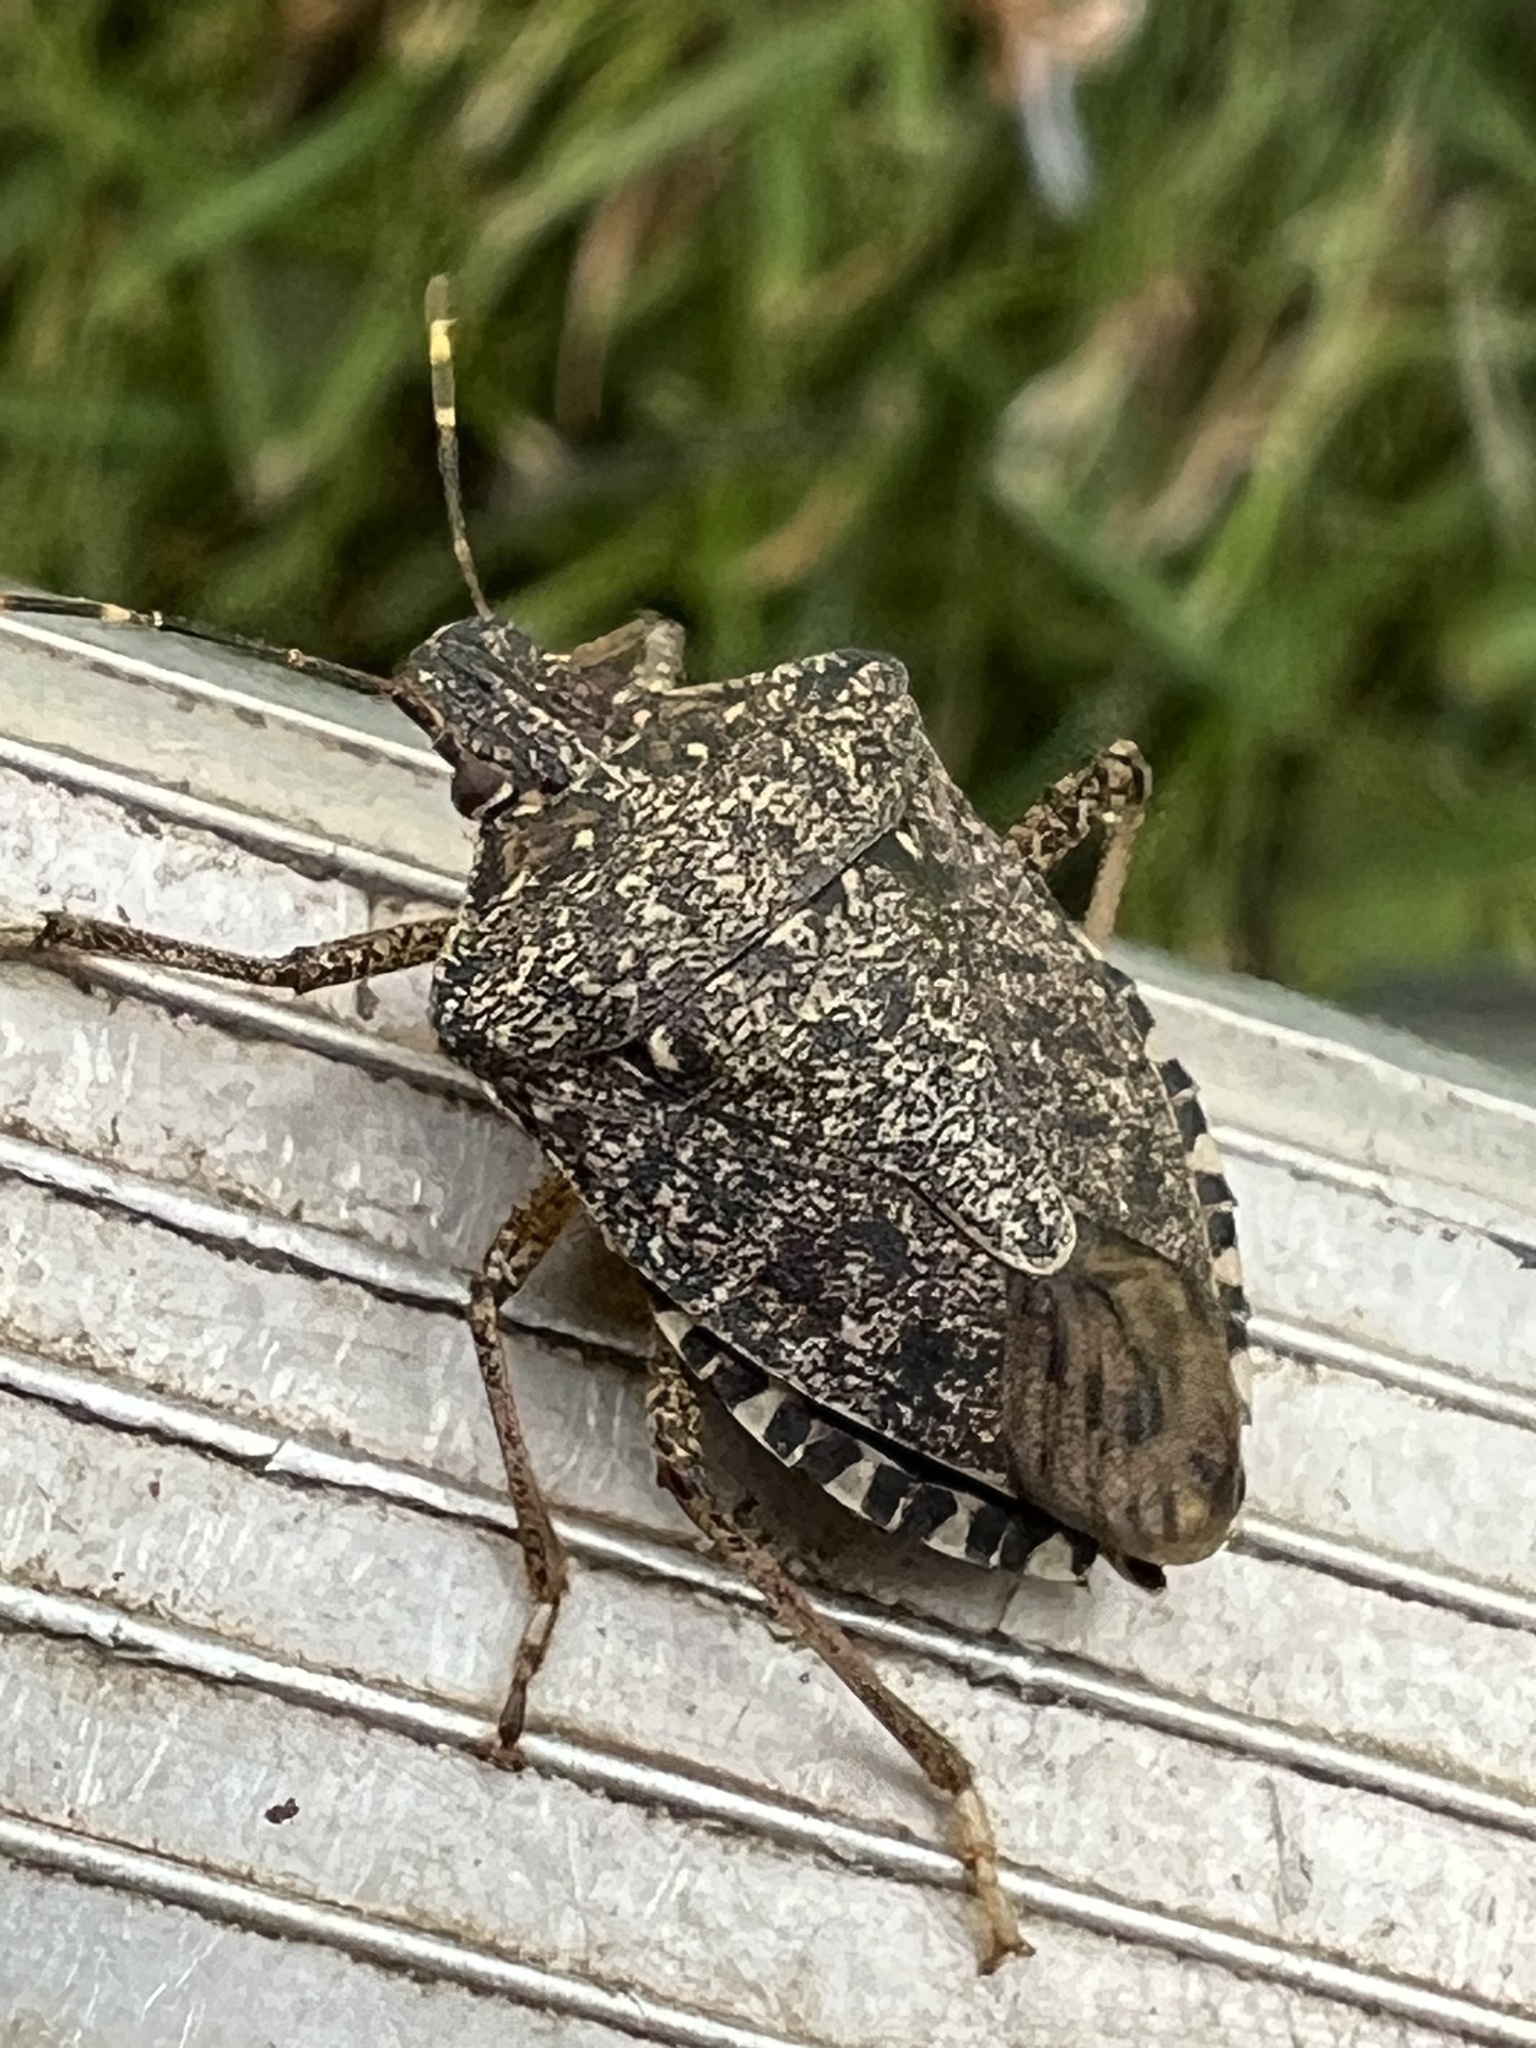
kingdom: Animalia
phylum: Arthropoda
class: Insecta
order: Hemiptera
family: Pentatomidae
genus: Halyomorpha
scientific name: Halyomorpha halys
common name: Brown marmorated stink bug
